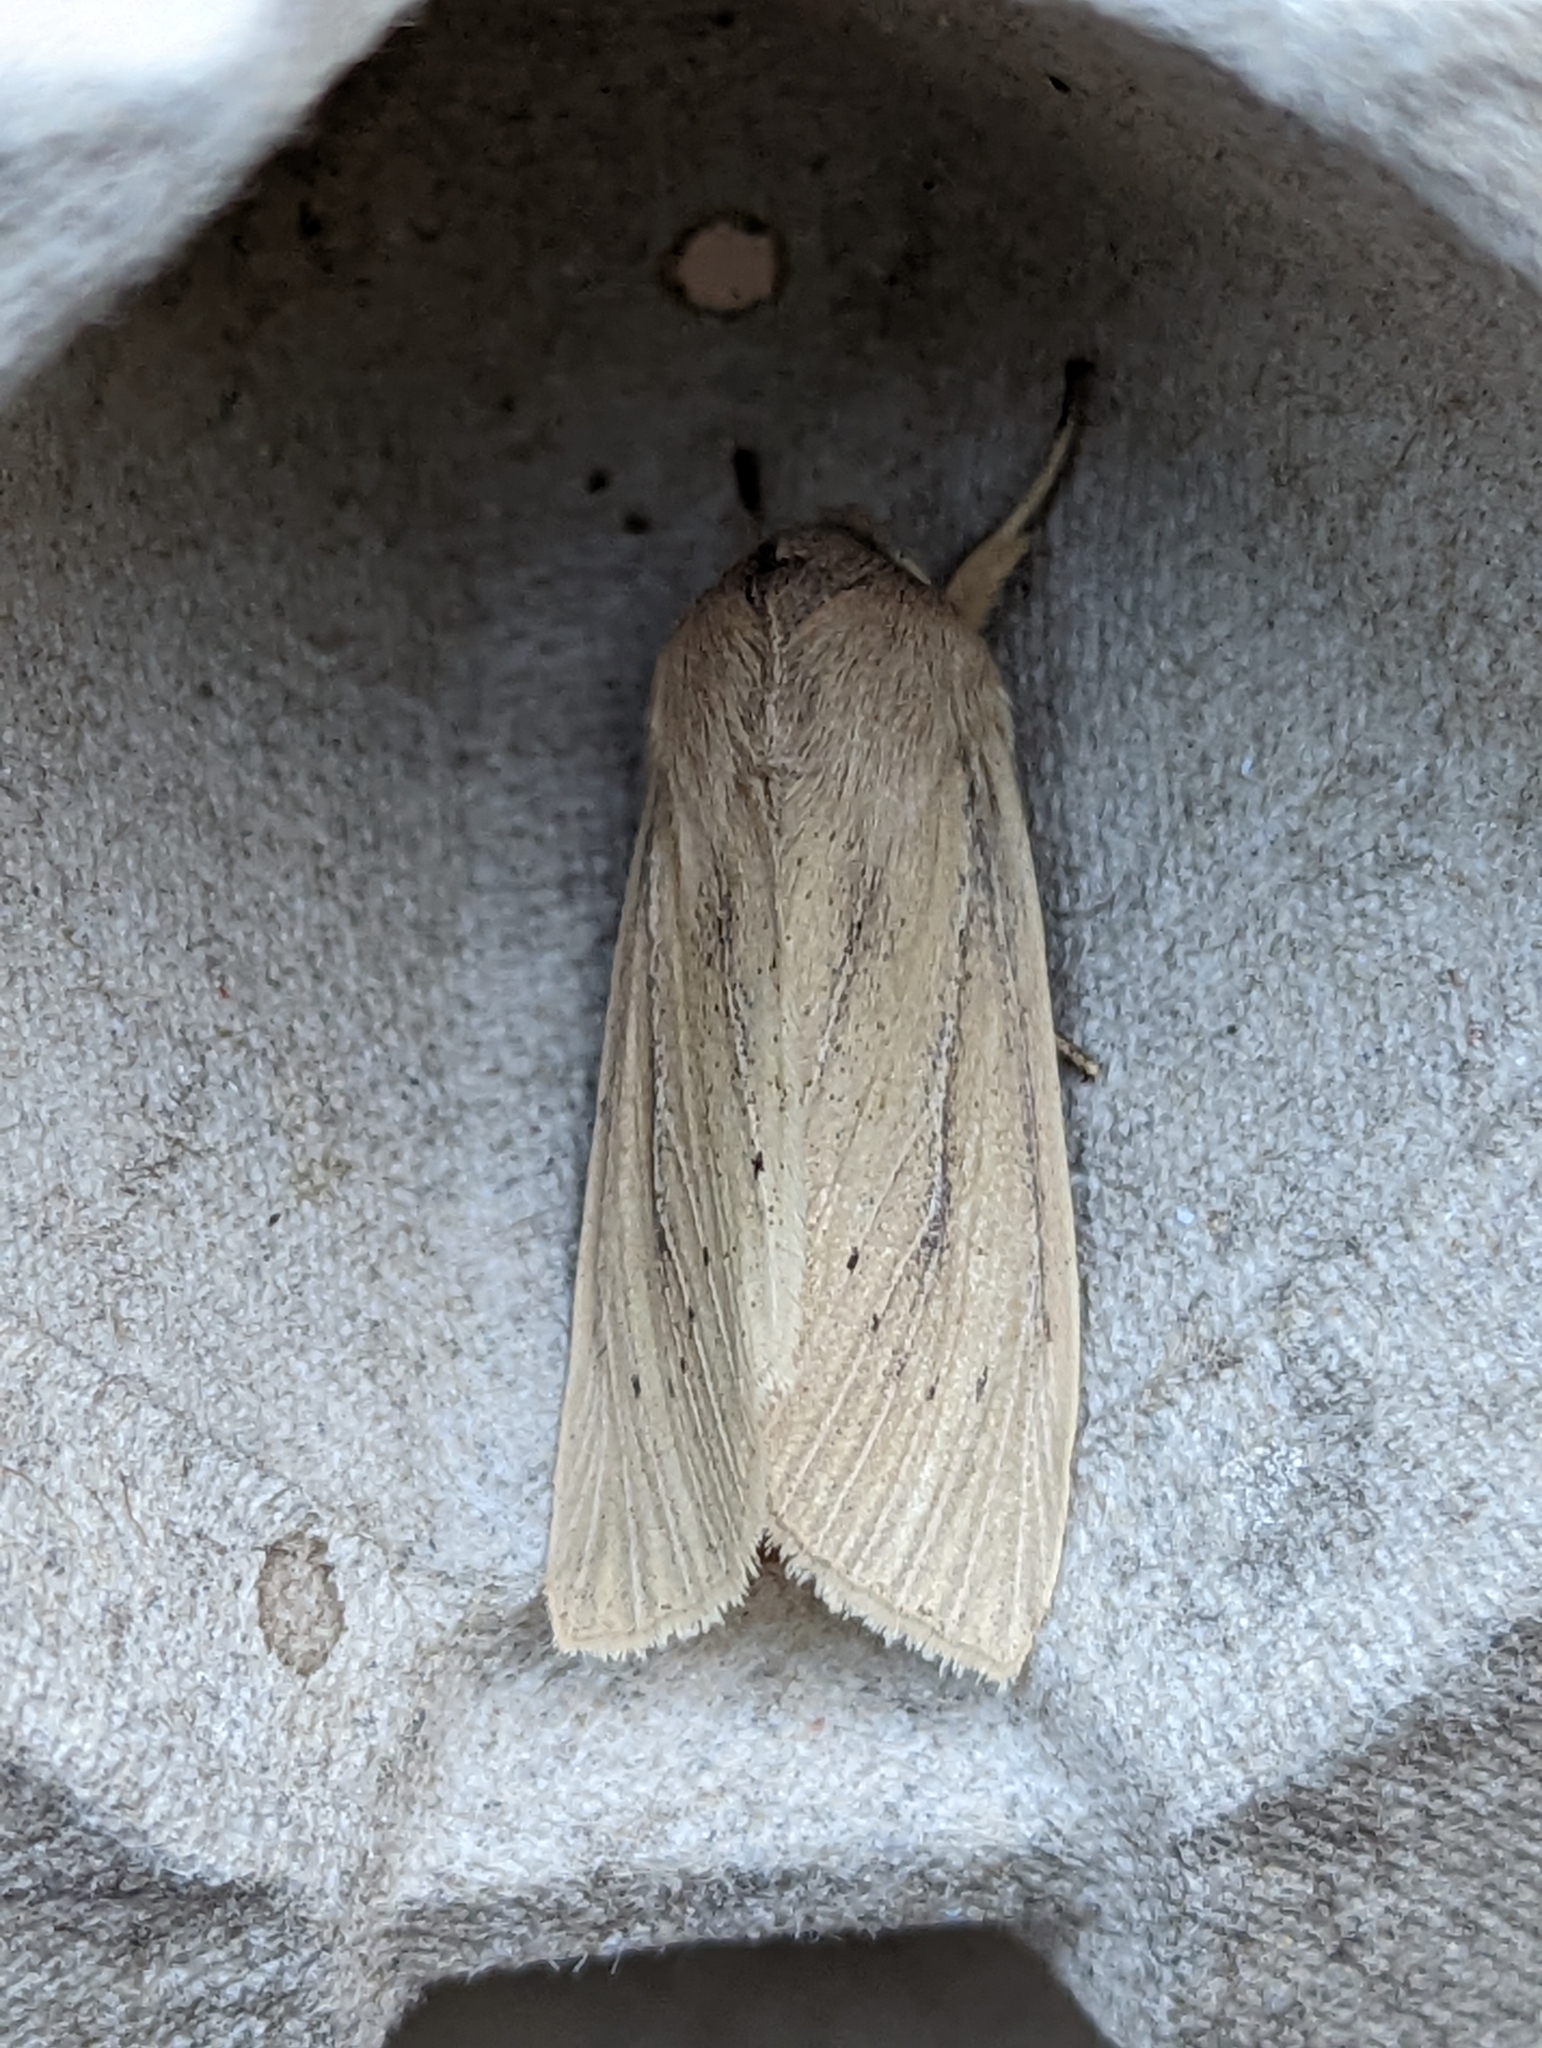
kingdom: Animalia
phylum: Arthropoda
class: Insecta
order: Lepidoptera
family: Noctuidae
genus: Rhizedra
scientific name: Rhizedra lutosa
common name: Large wainscot
